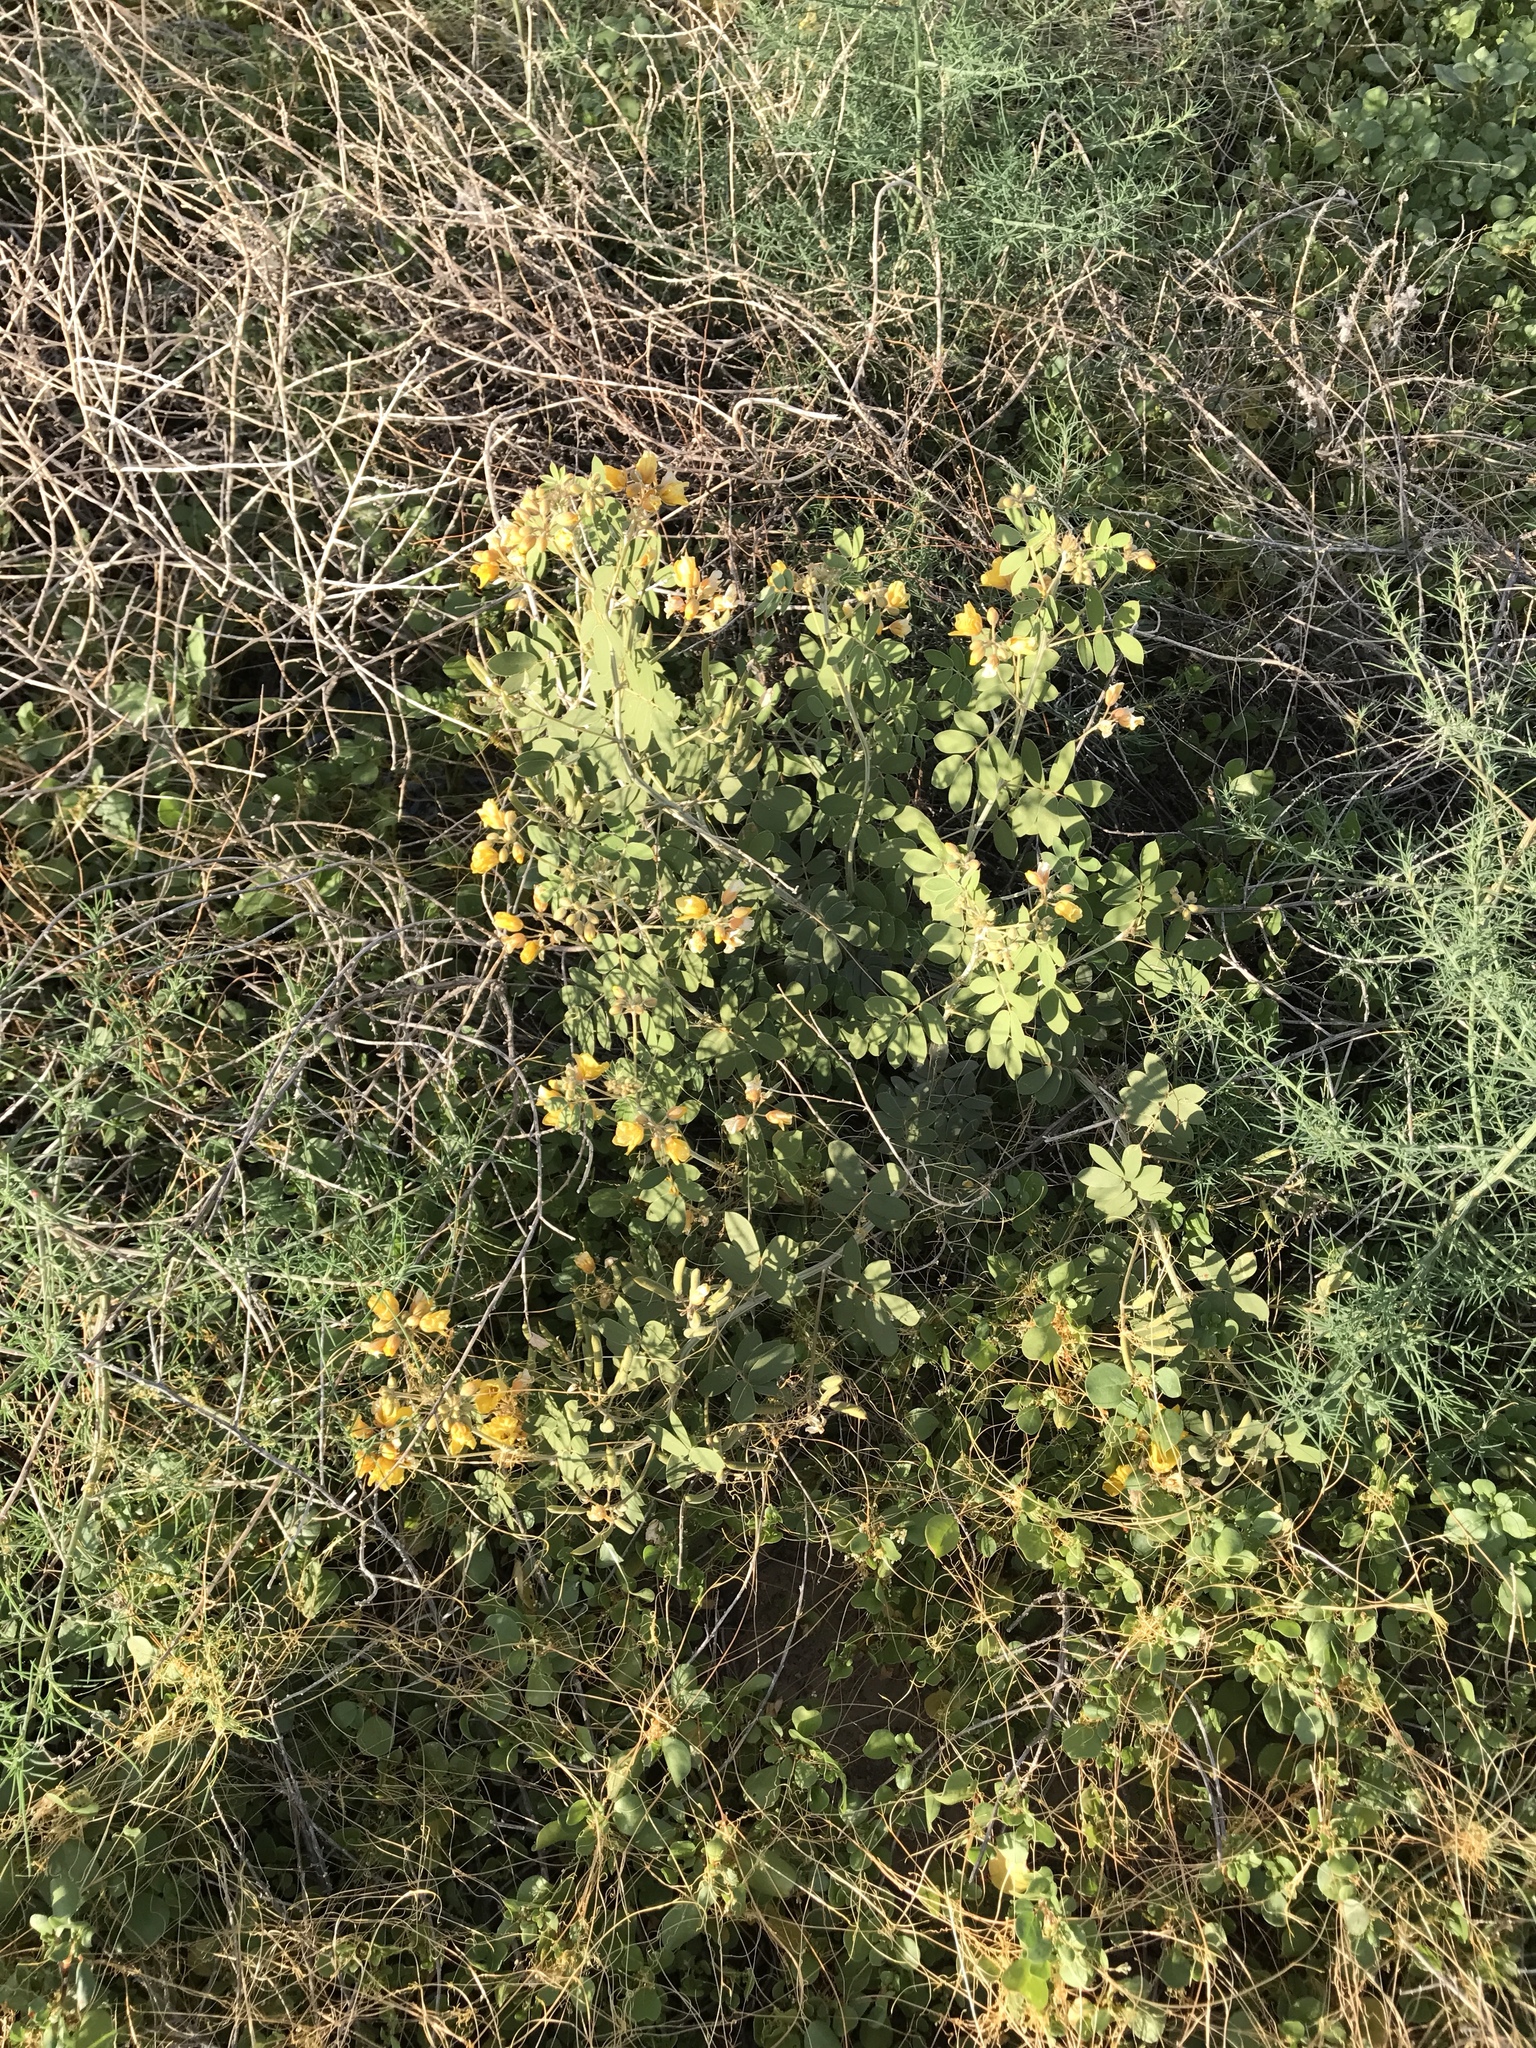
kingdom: Plantae
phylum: Tracheophyta
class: Magnoliopsida
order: Fabales
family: Fabaceae
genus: Senna
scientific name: Senna covesii
